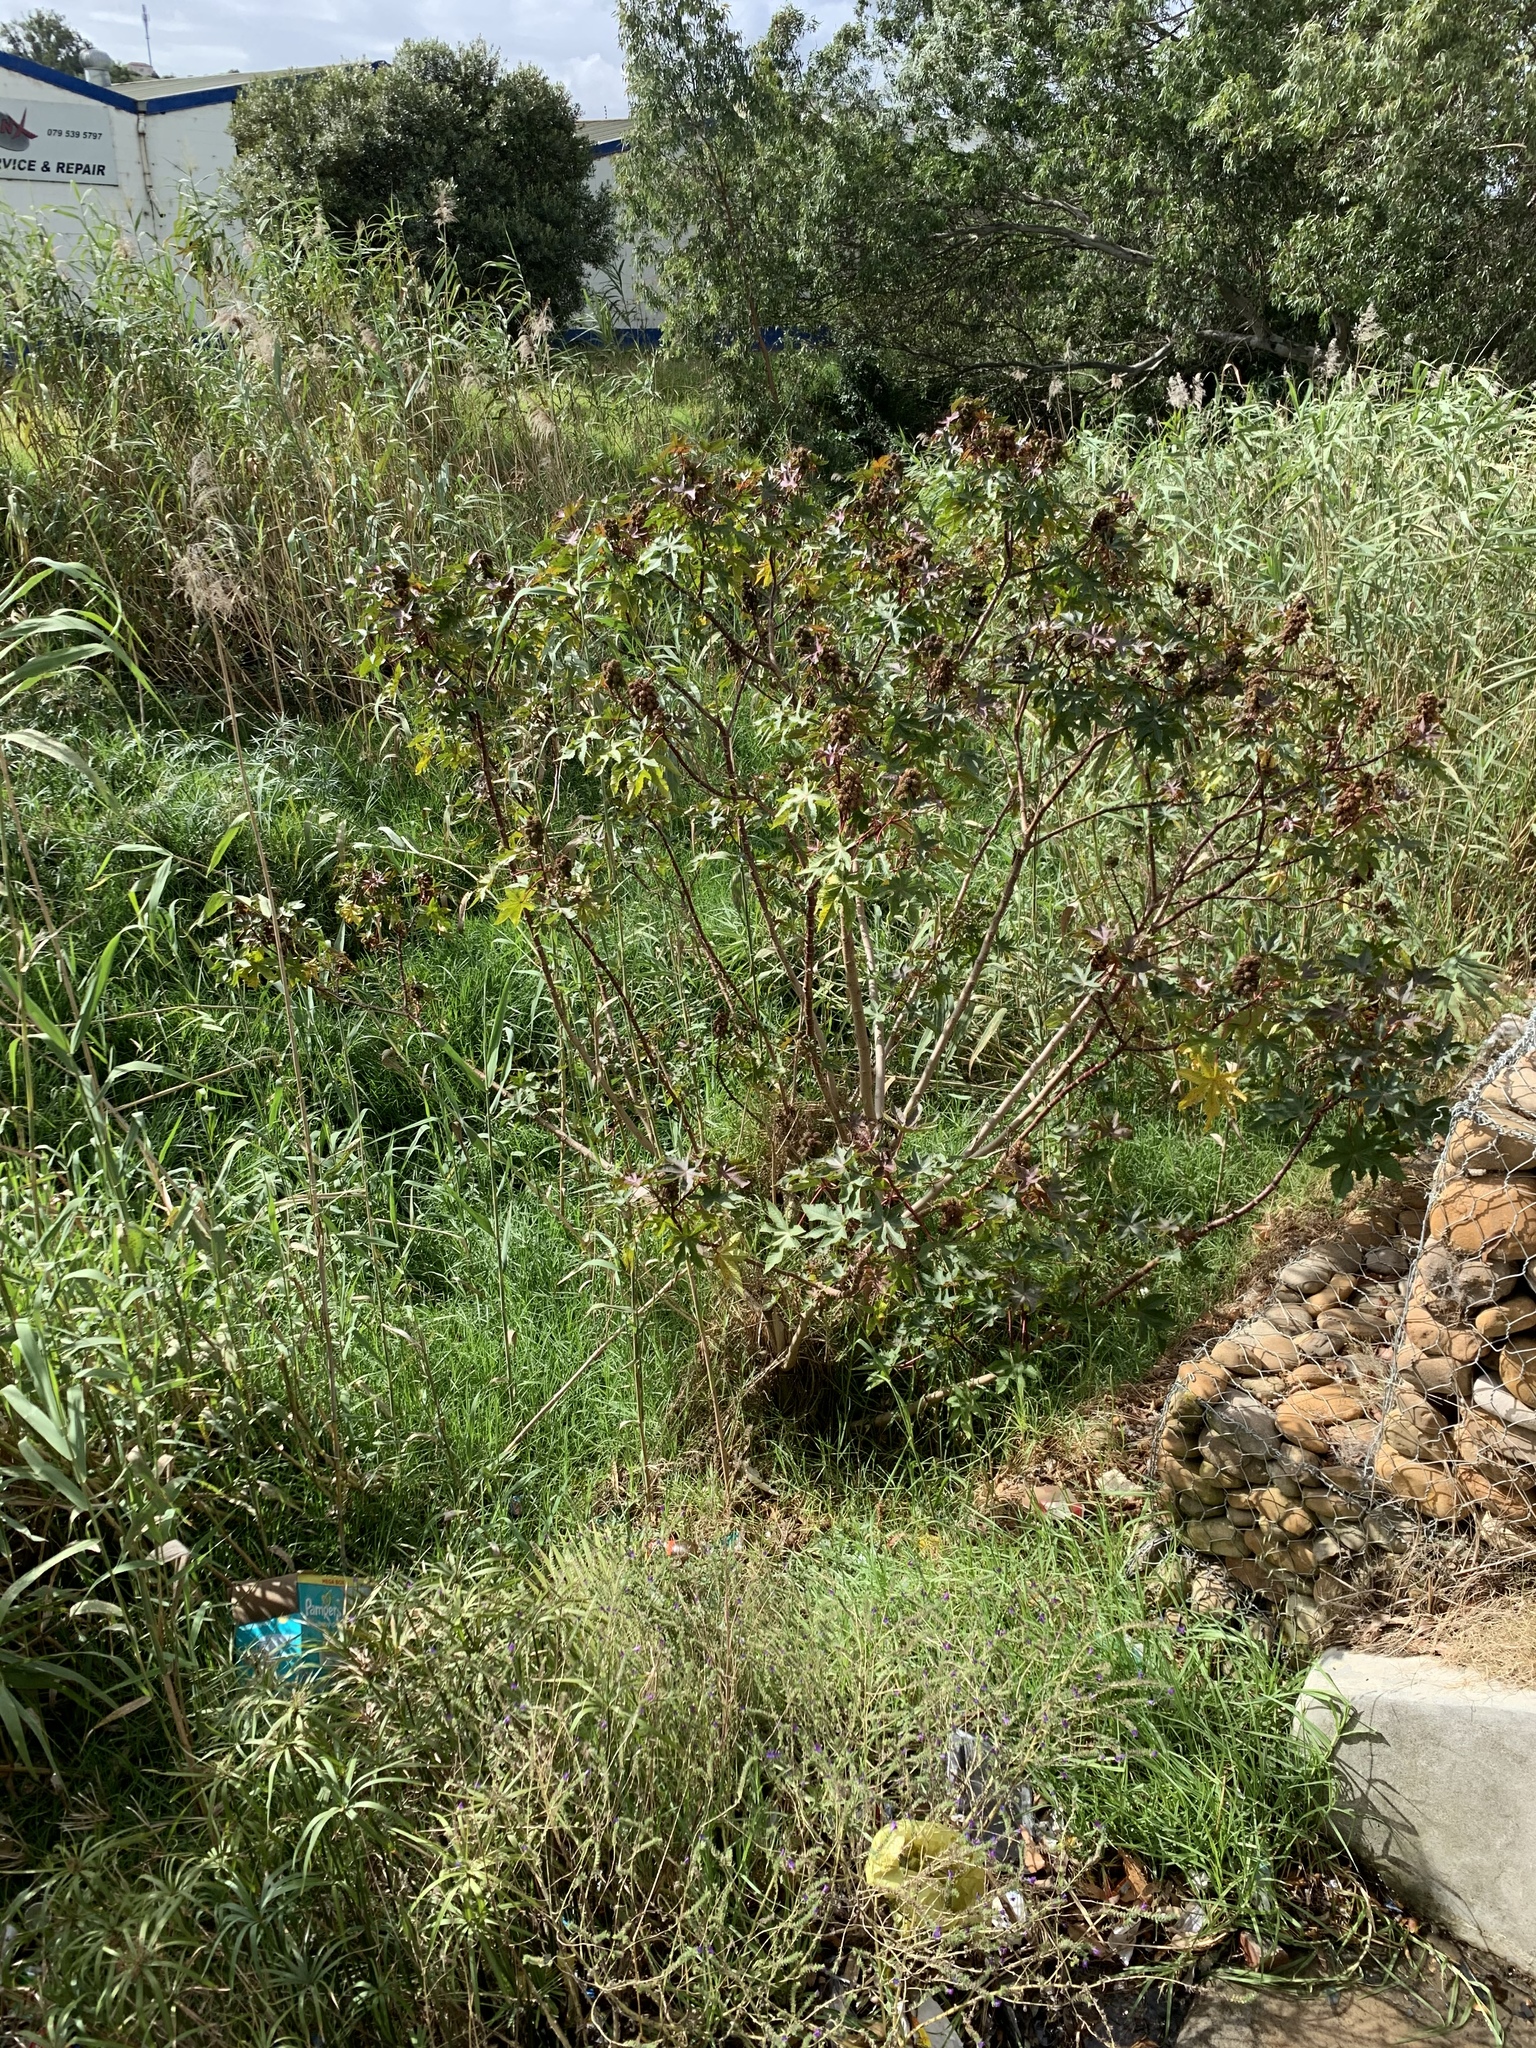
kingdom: Plantae
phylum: Tracheophyta
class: Magnoliopsida
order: Malpighiales
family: Euphorbiaceae
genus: Ricinus
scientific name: Ricinus communis
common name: Castor-oil-plant
